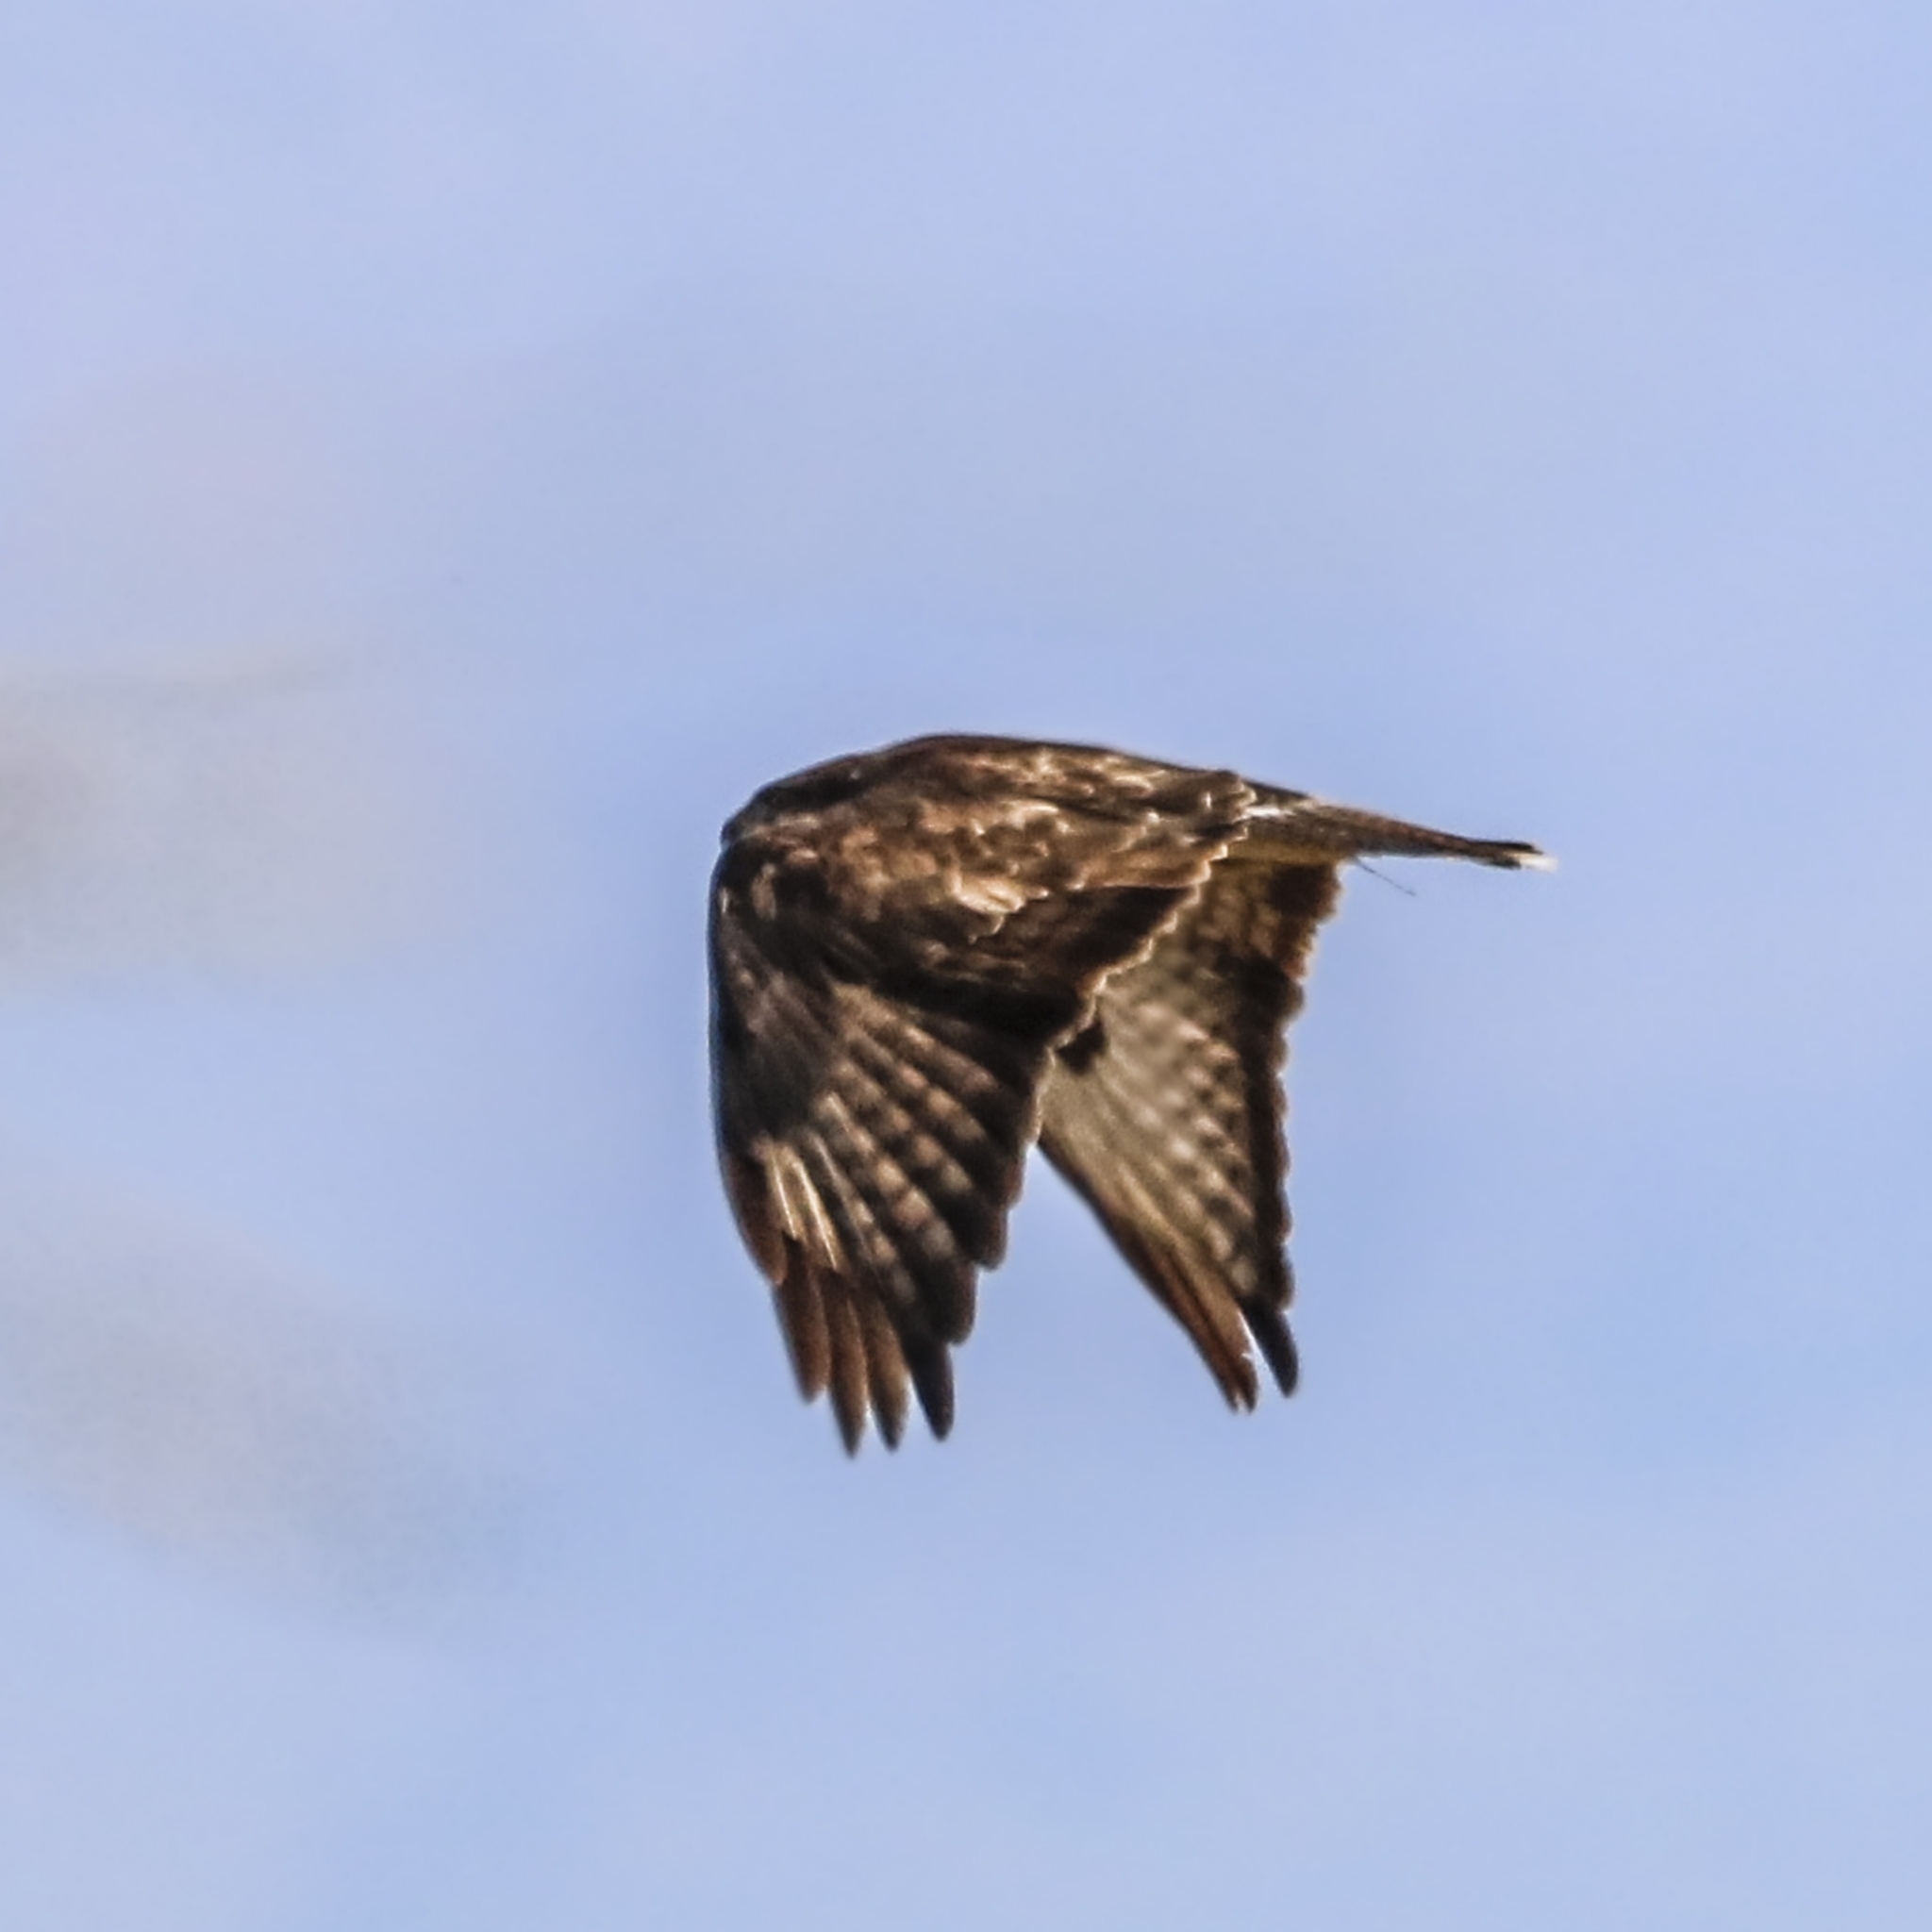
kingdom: Animalia
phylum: Chordata
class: Aves
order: Accipitriformes
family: Accipitridae
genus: Buteo
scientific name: Buteo buteo
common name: Common buzzard
